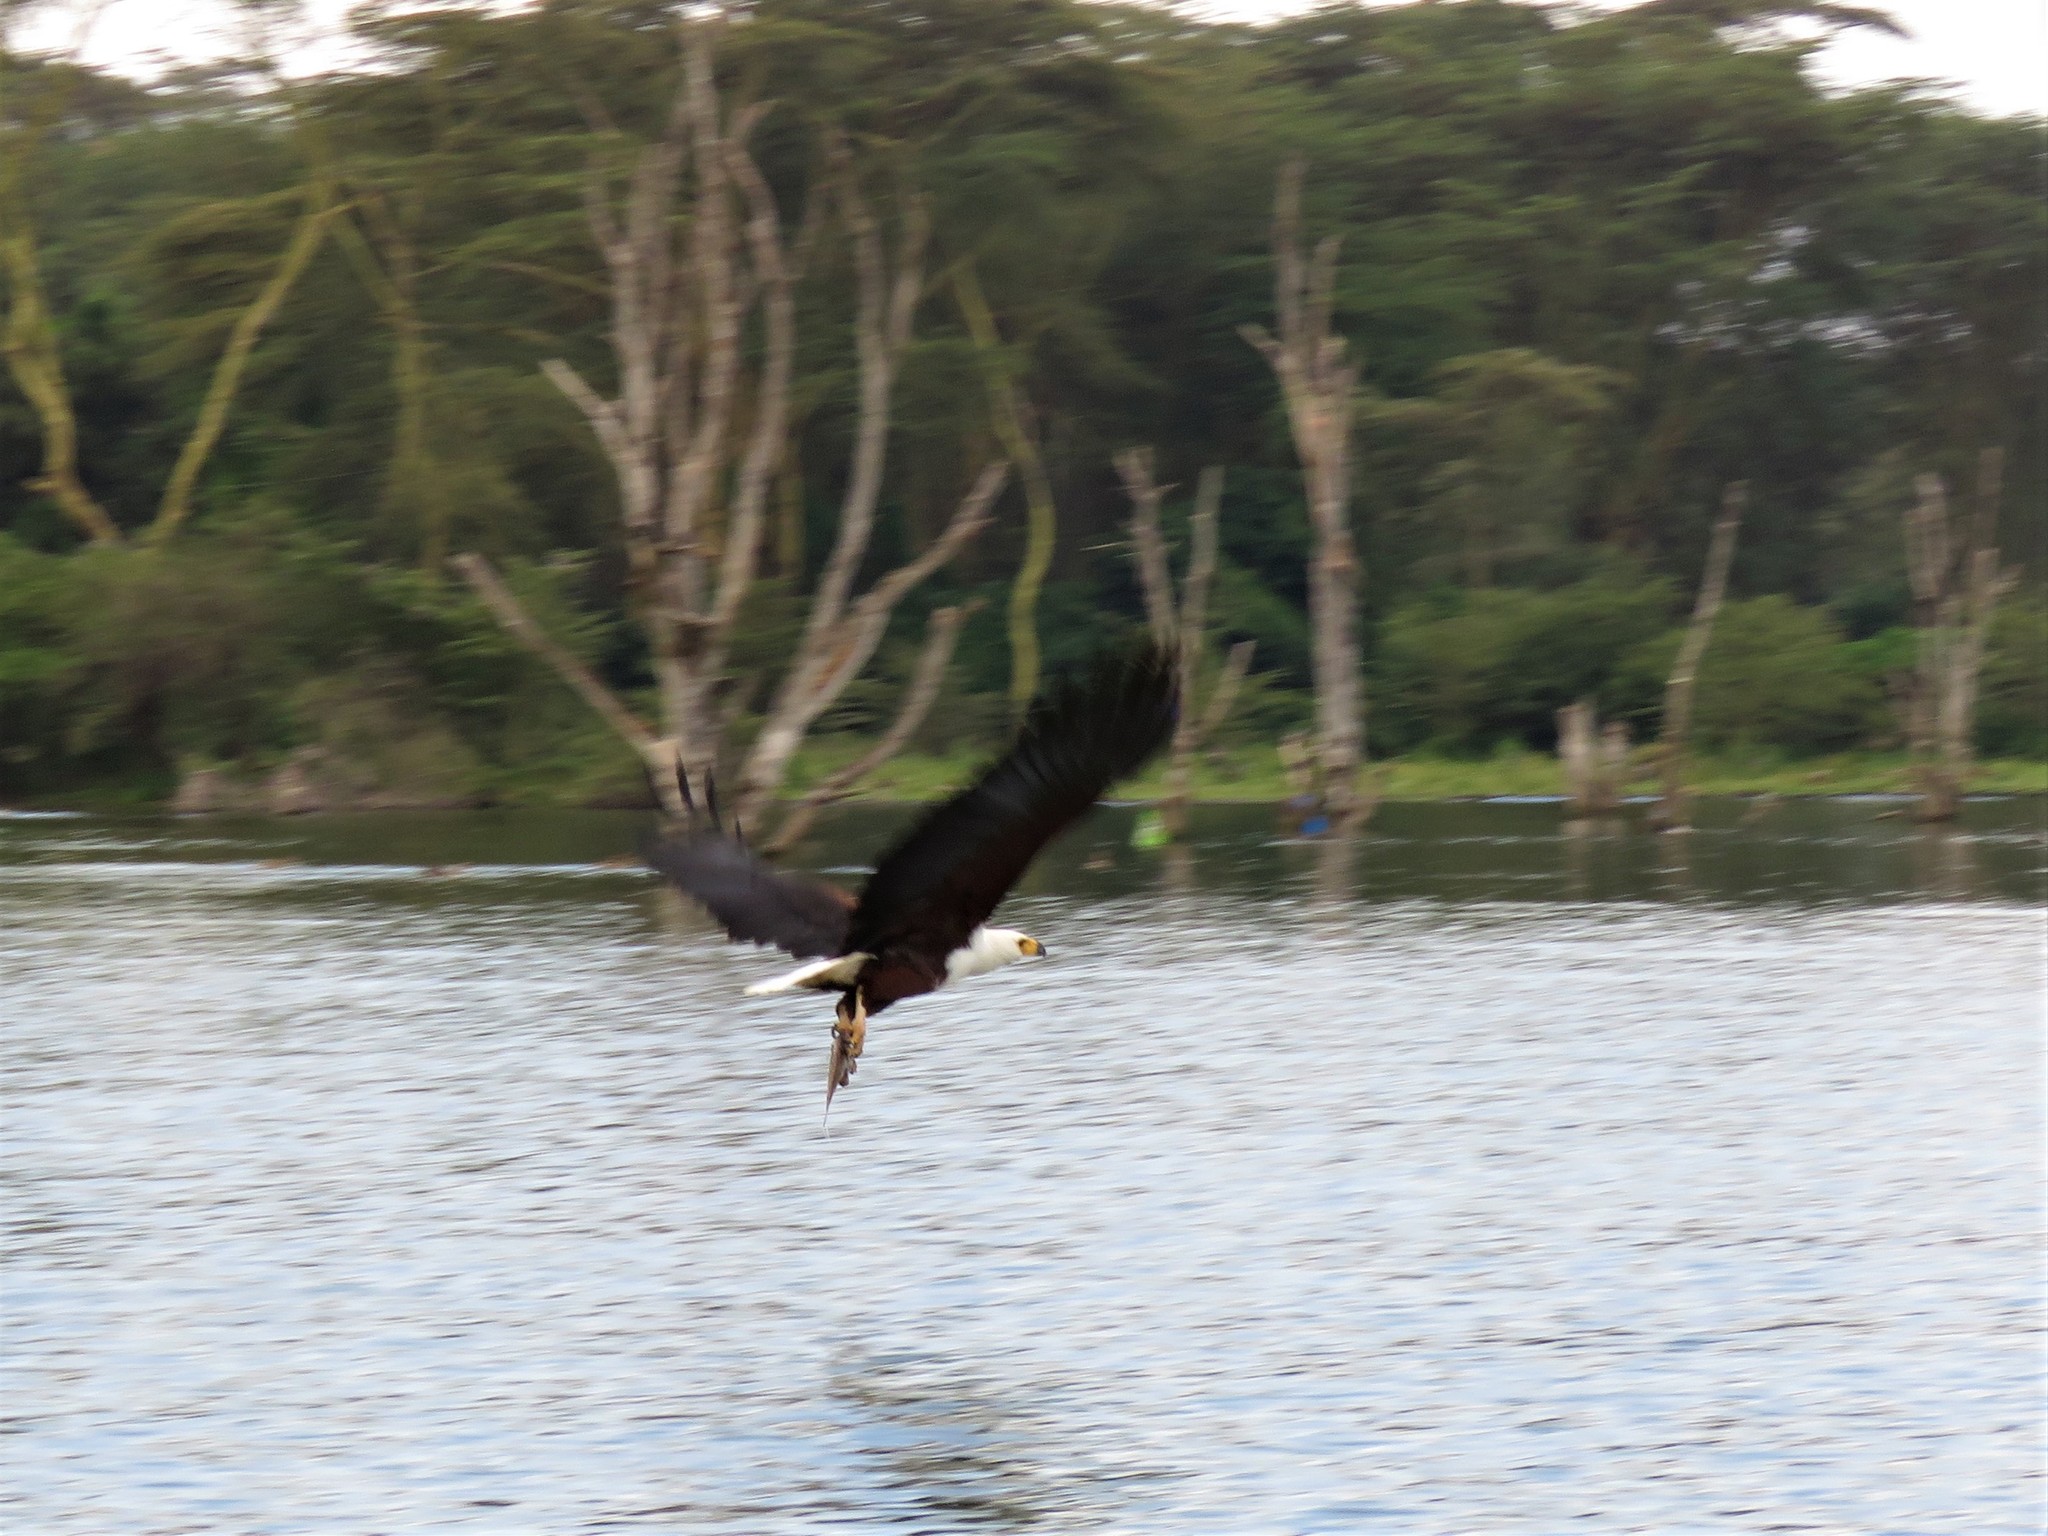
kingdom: Animalia
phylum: Chordata
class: Aves
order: Accipitriformes
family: Accipitridae
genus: Haliaeetus
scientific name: Haliaeetus vocifer
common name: African fish eagle
